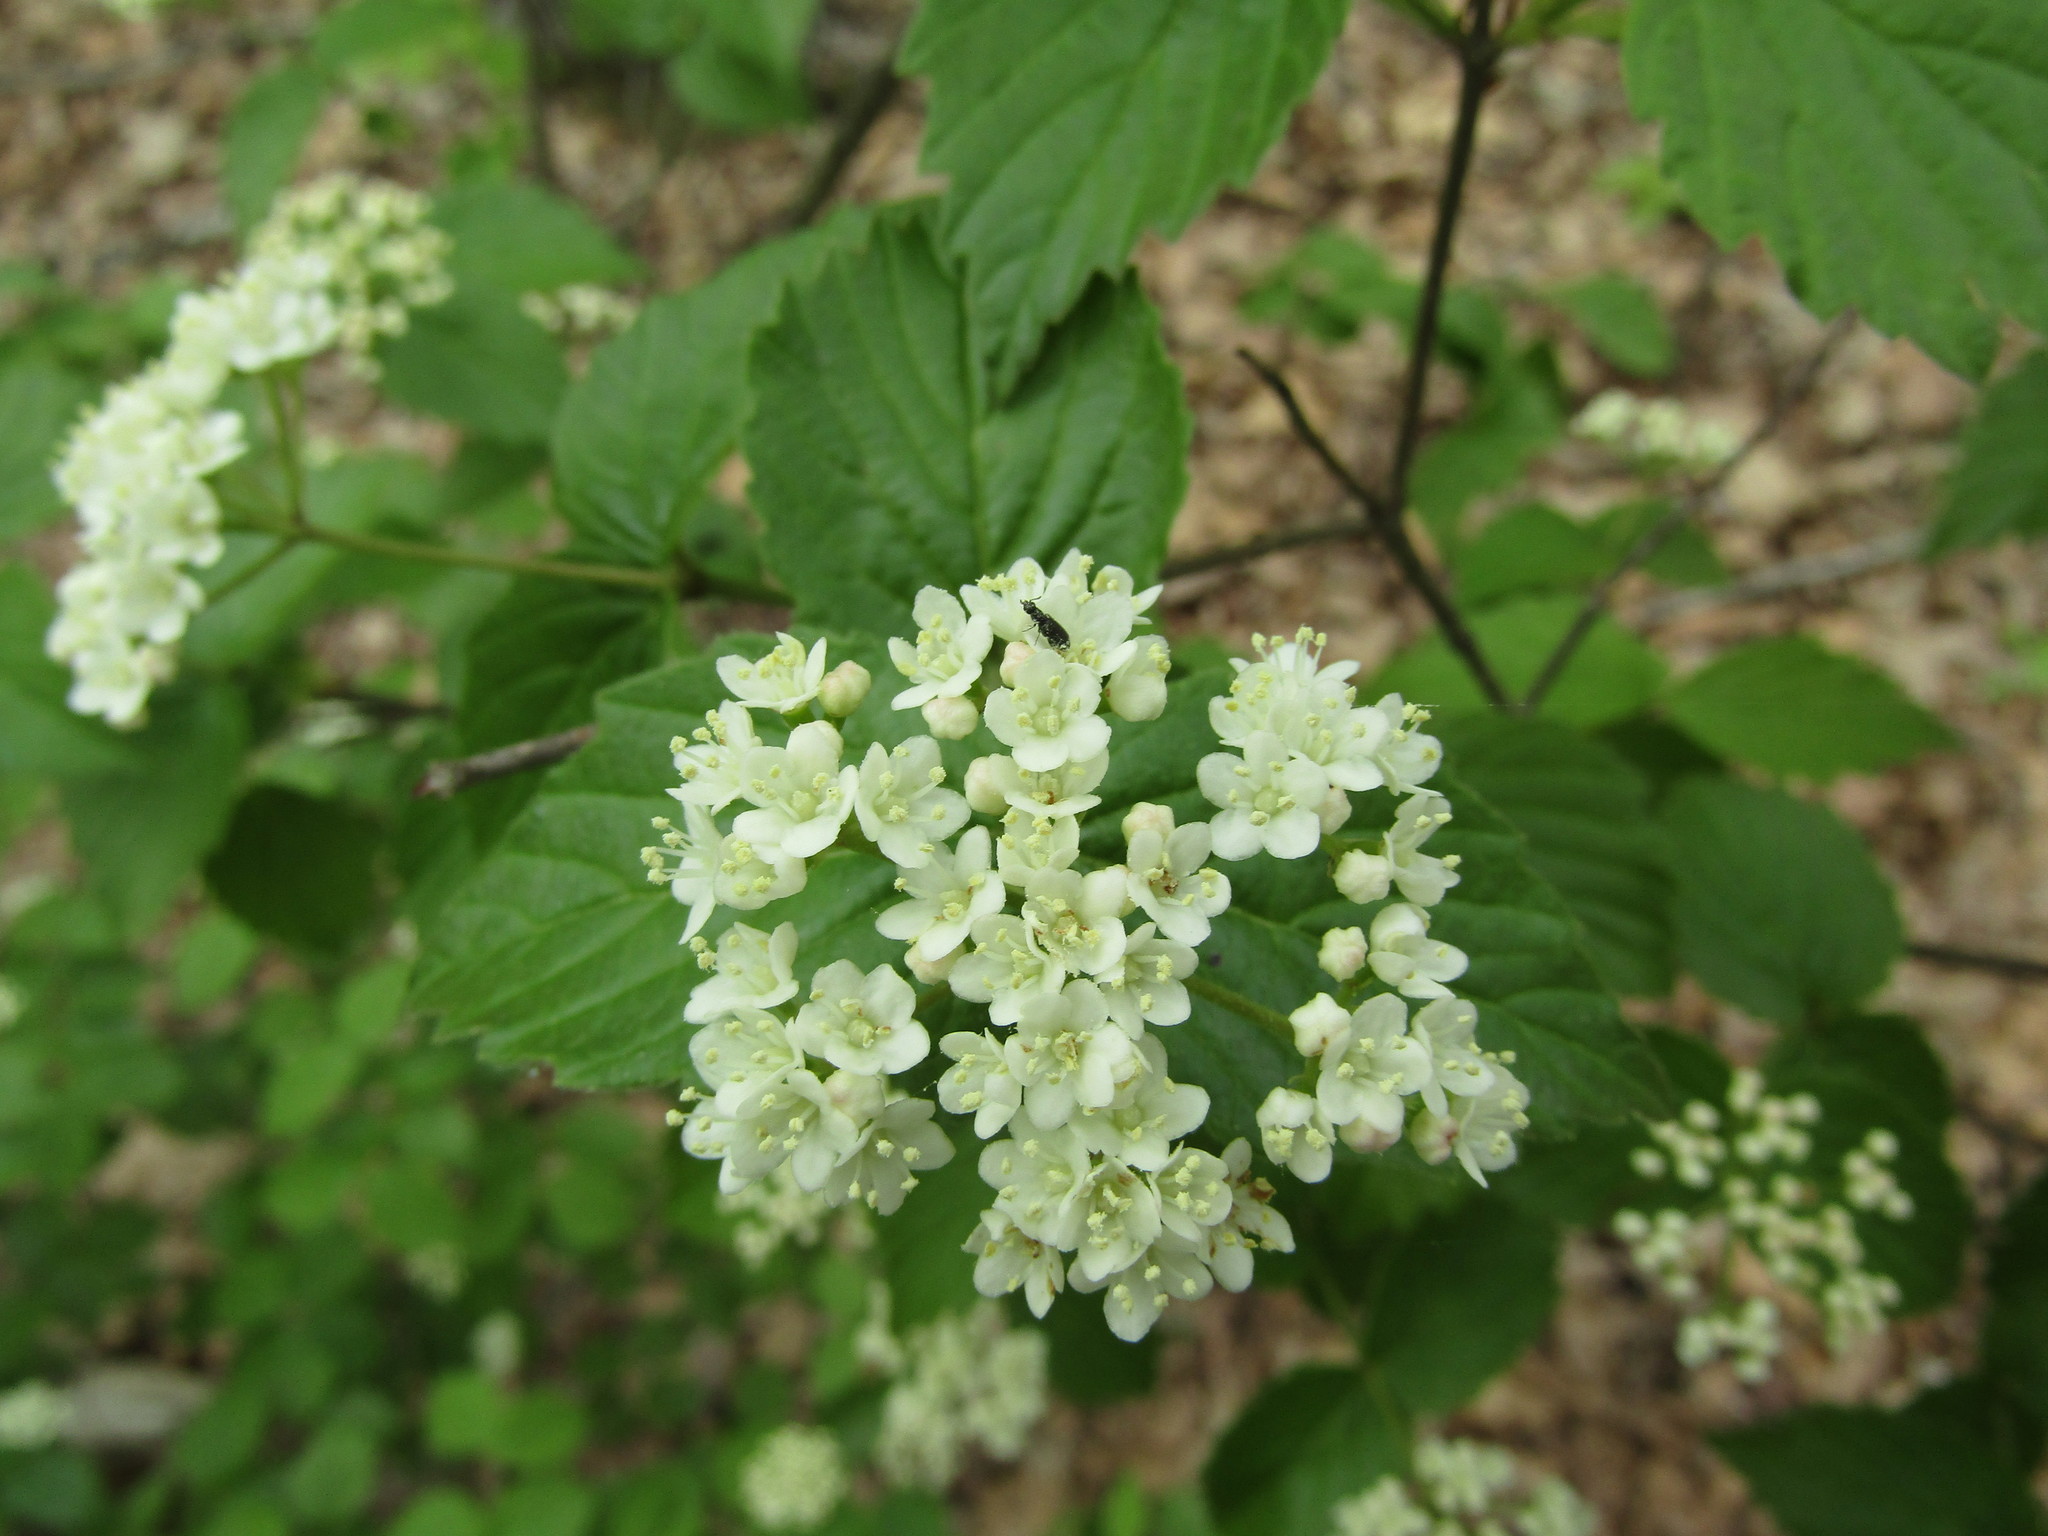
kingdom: Plantae
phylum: Tracheophyta
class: Magnoliopsida
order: Dipsacales
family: Viburnaceae
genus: Viburnum
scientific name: Viburnum rafinesqueanum
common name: Downy arrow-wood
